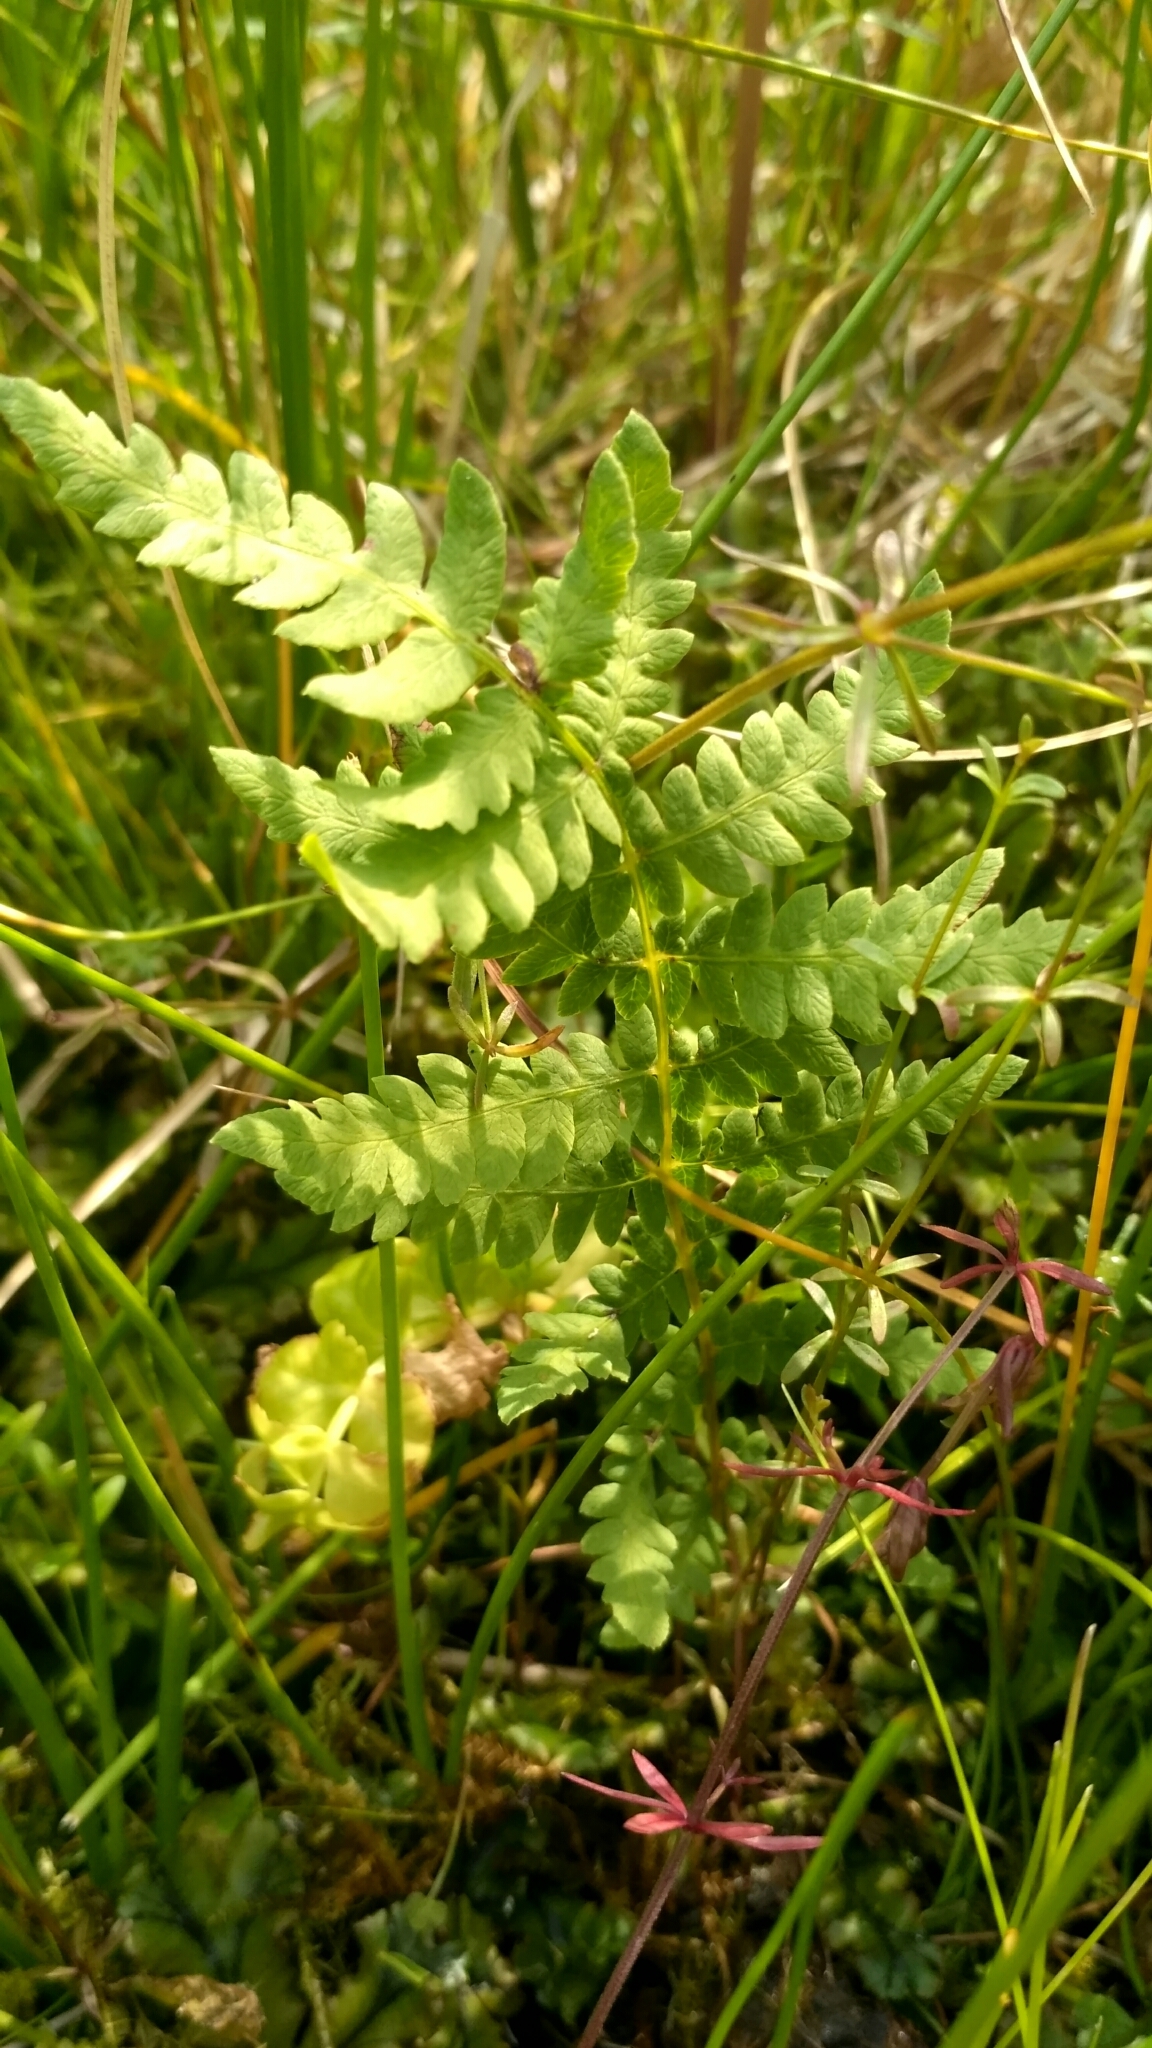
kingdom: Plantae
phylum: Tracheophyta
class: Polypodiopsida
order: Polypodiales
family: Thelypteridaceae
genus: Thelypteris
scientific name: Thelypteris palustris
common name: Marsh fern
